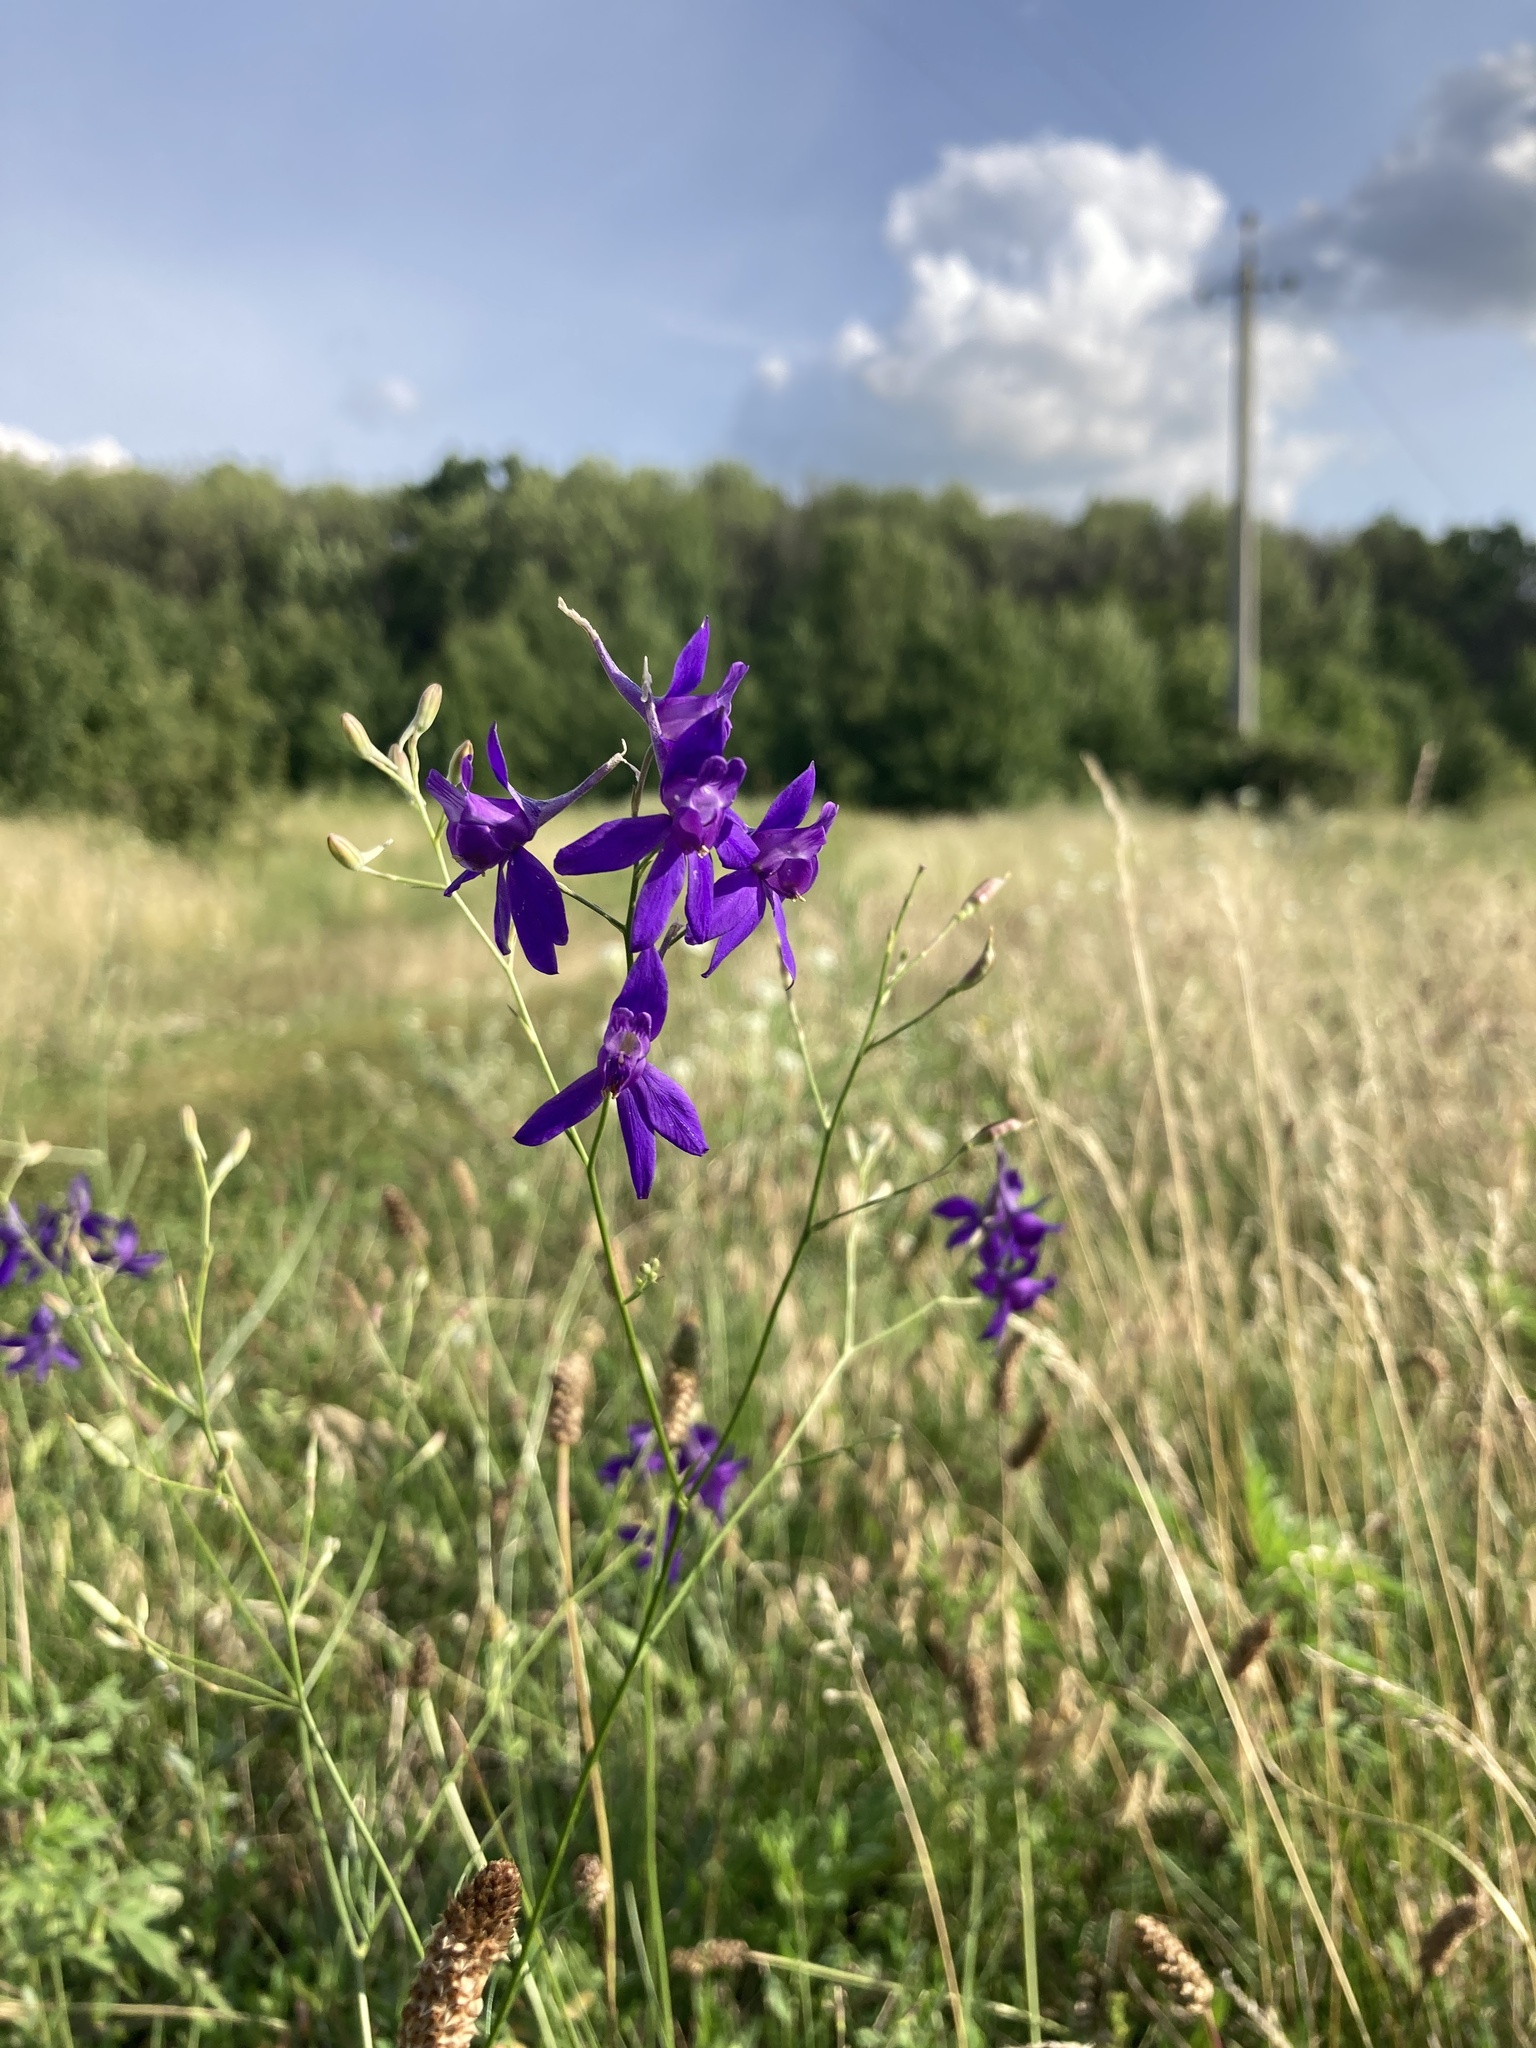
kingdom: Plantae
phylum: Tracheophyta
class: Magnoliopsida
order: Ranunculales
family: Ranunculaceae
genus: Delphinium
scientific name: Delphinium consolida
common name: Branching larkspur
